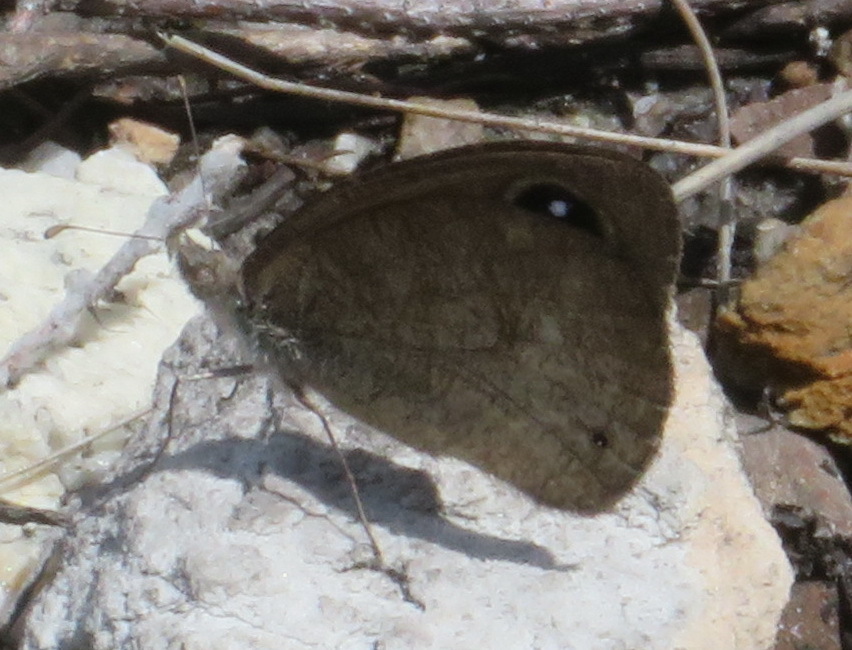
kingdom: Animalia
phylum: Arthropoda
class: Insecta
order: Lepidoptera
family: Nymphalidae
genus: Stygionympha
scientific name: Stygionympha vigilans
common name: Western hillside brown
